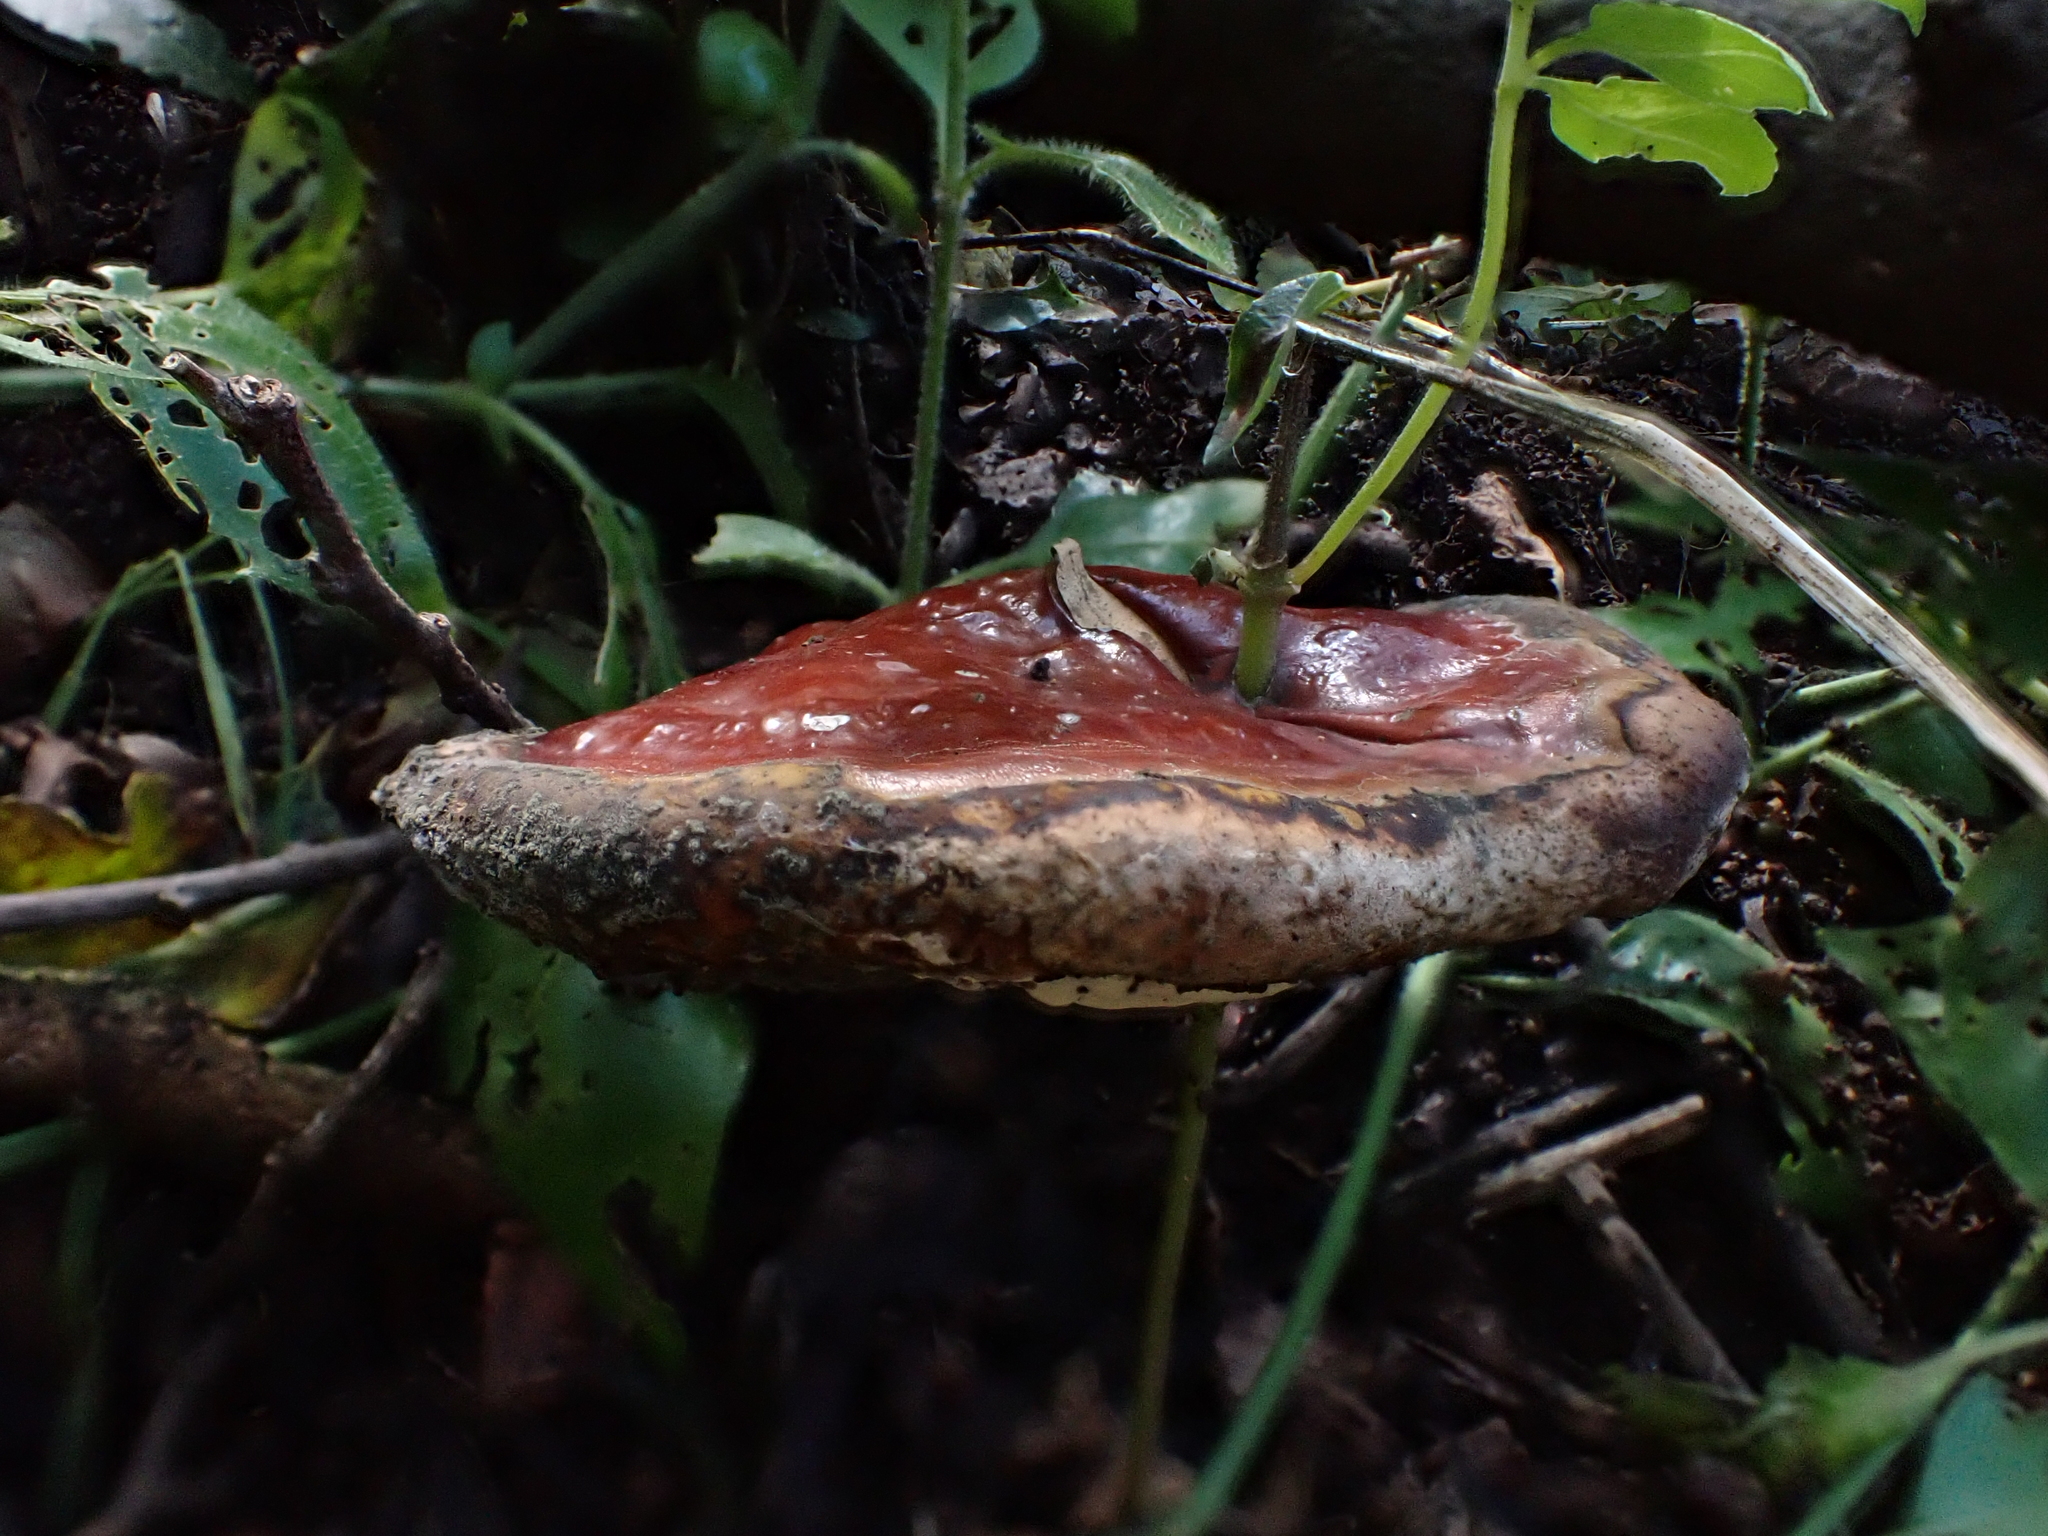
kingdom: Fungi
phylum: Basidiomycota
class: Agaricomycetes
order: Polyporales
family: Polyporaceae
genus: Ganoderma
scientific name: Ganoderma lucidum
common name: Lacquered bracket
